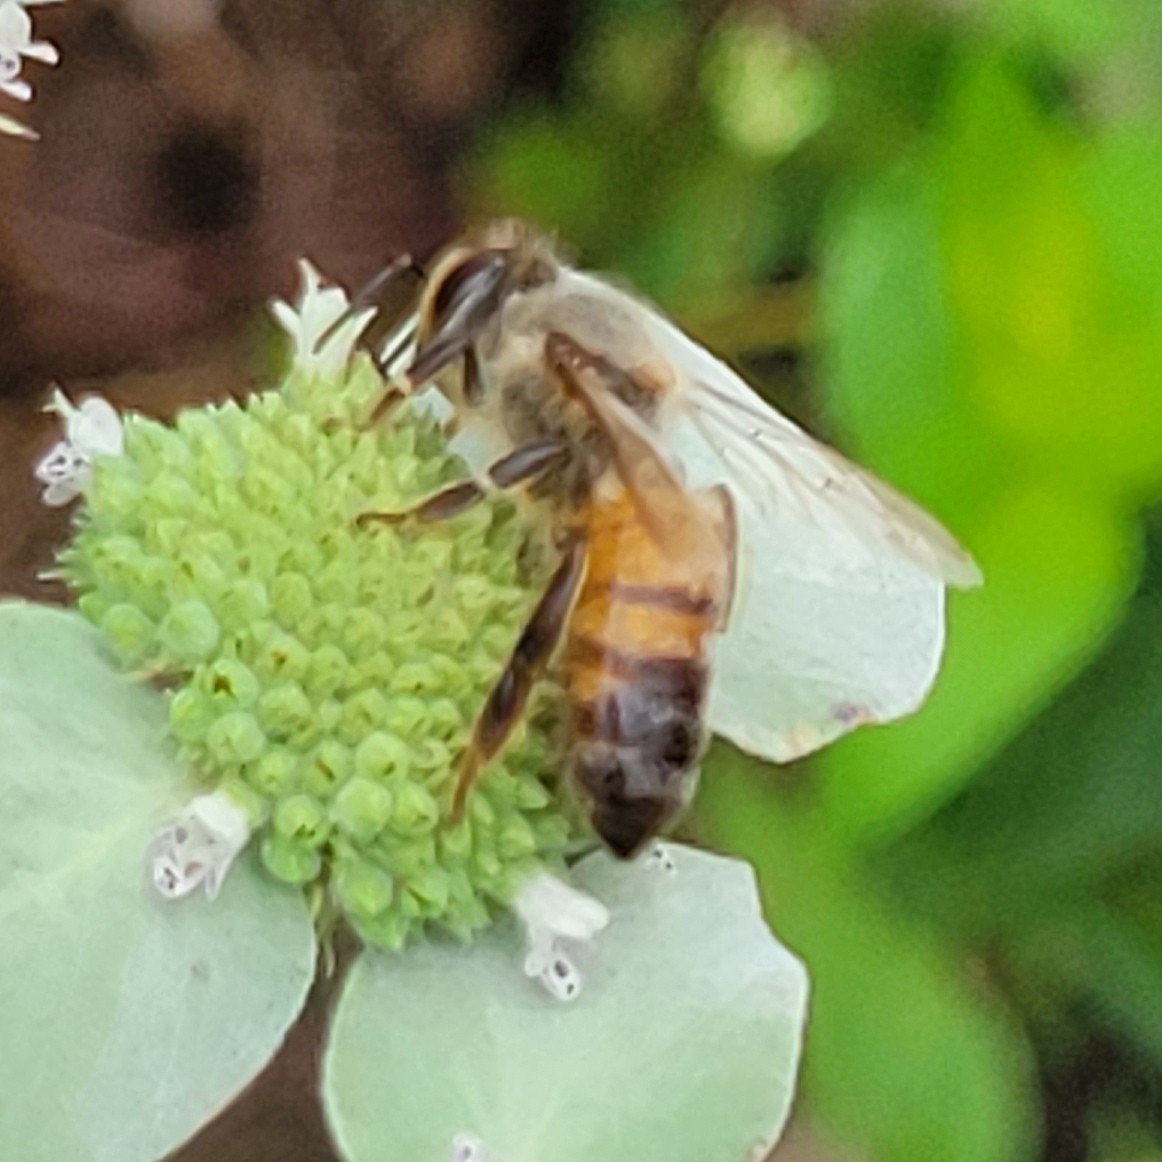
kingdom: Animalia
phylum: Arthropoda
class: Insecta
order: Hymenoptera
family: Apidae
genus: Apis
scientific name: Apis mellifera
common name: Honey bee
